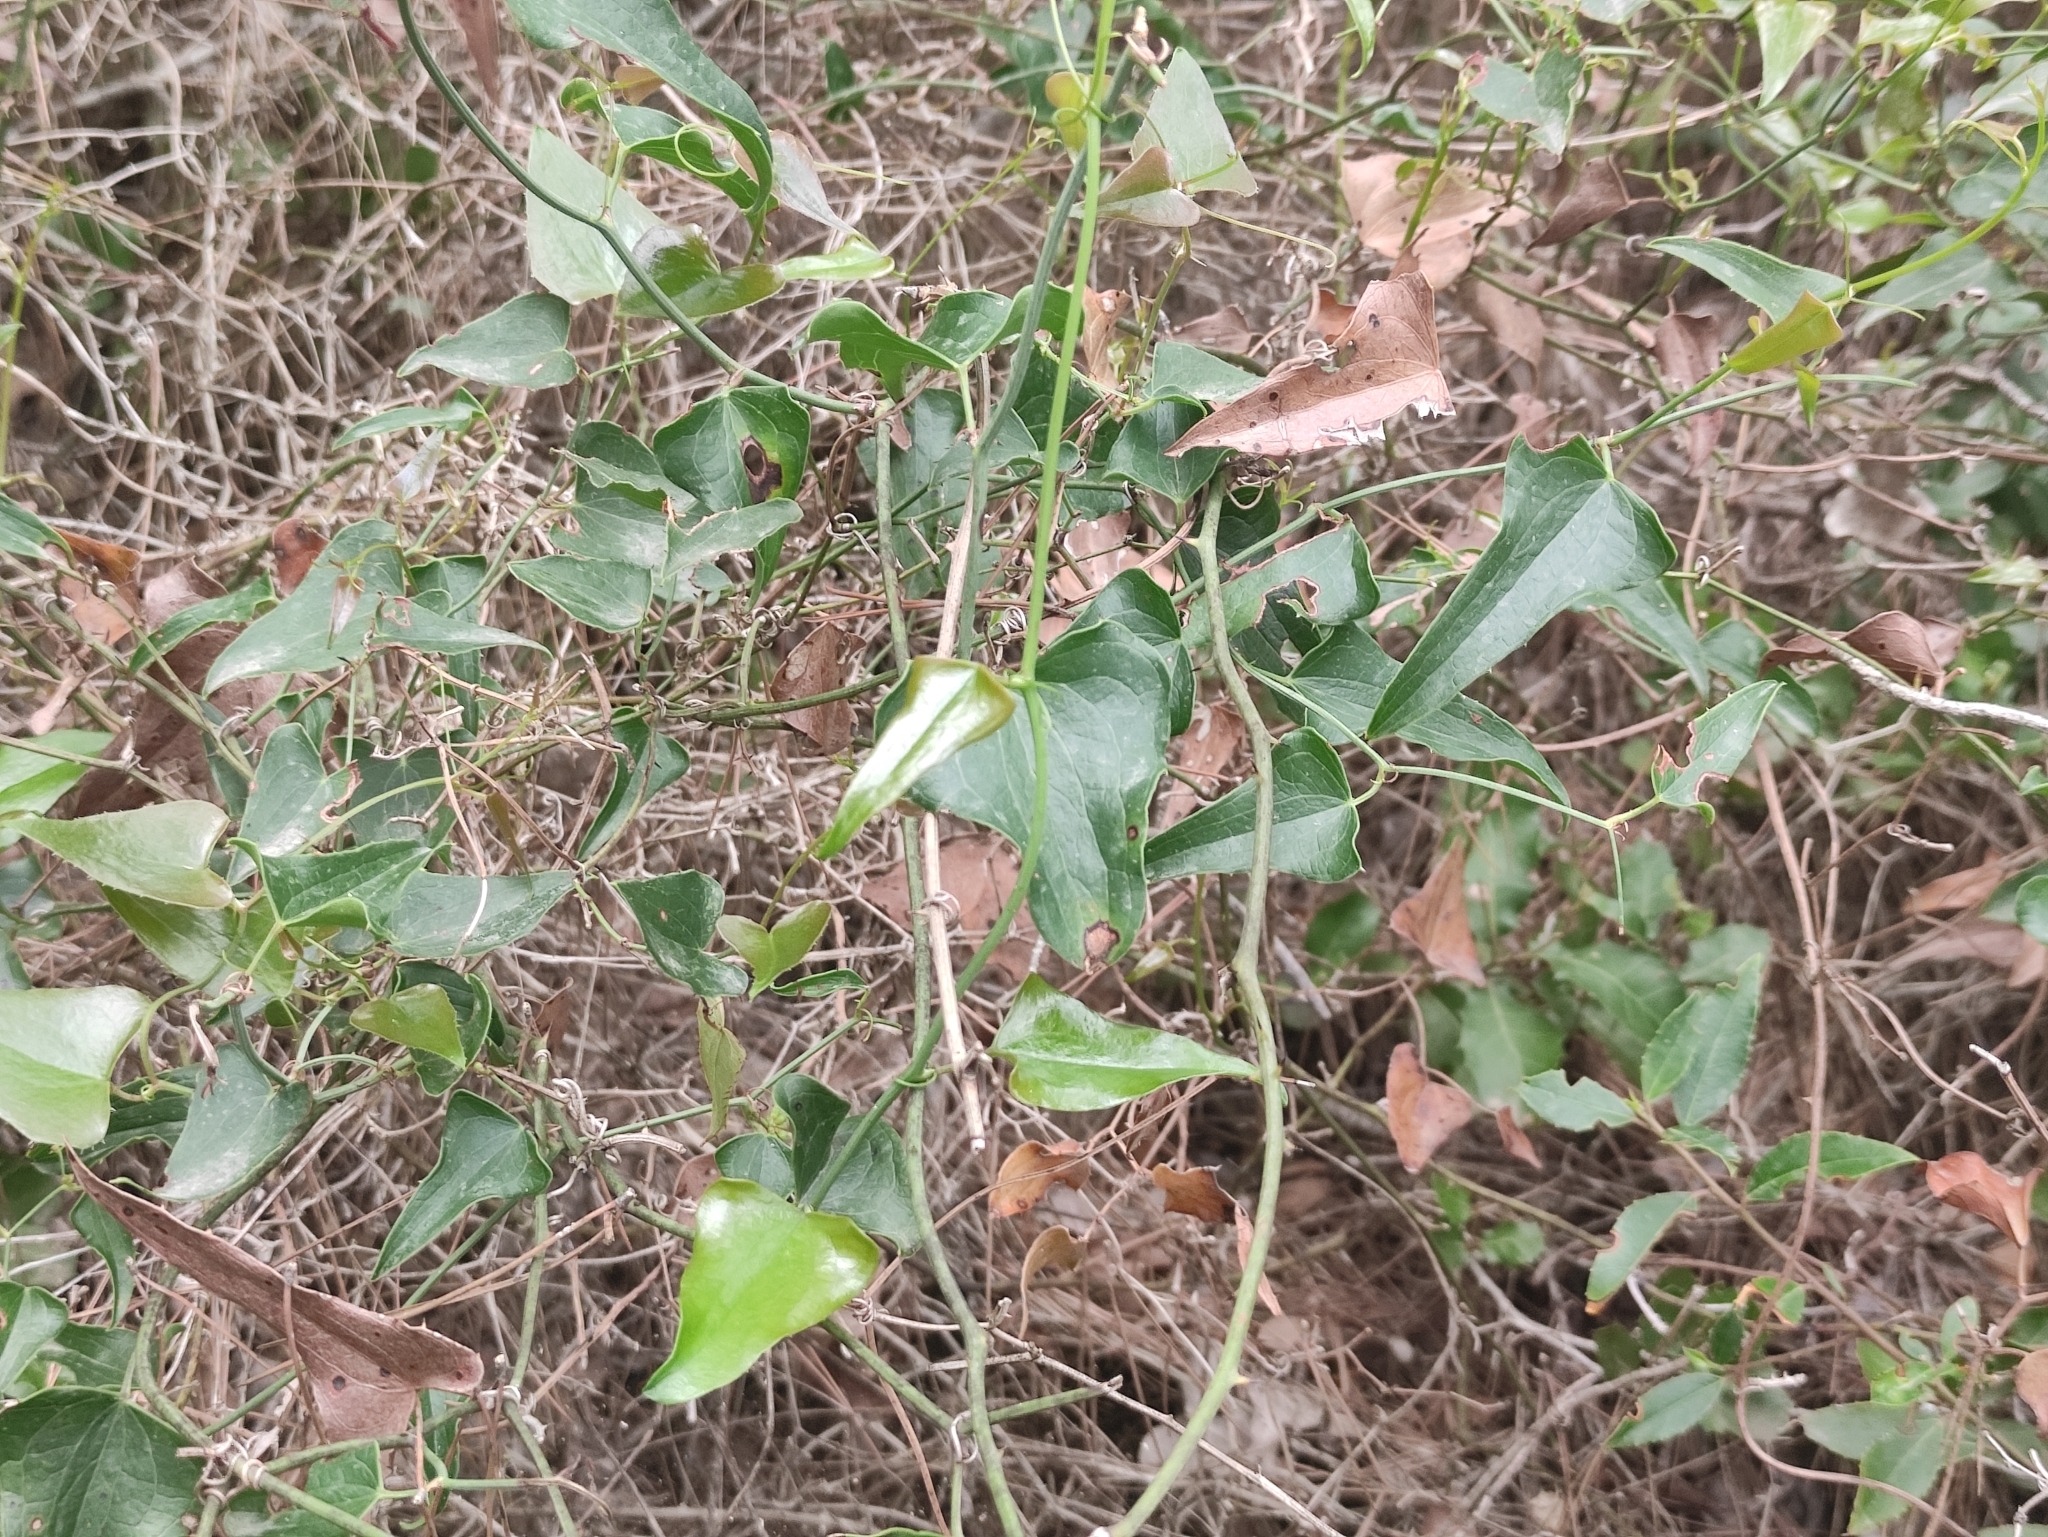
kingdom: Plantae
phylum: Tracheophyta
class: Liliopsida
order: Liliales
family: Smilacaceae
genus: Smilax
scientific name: Smilax aspera
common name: Common smilax
